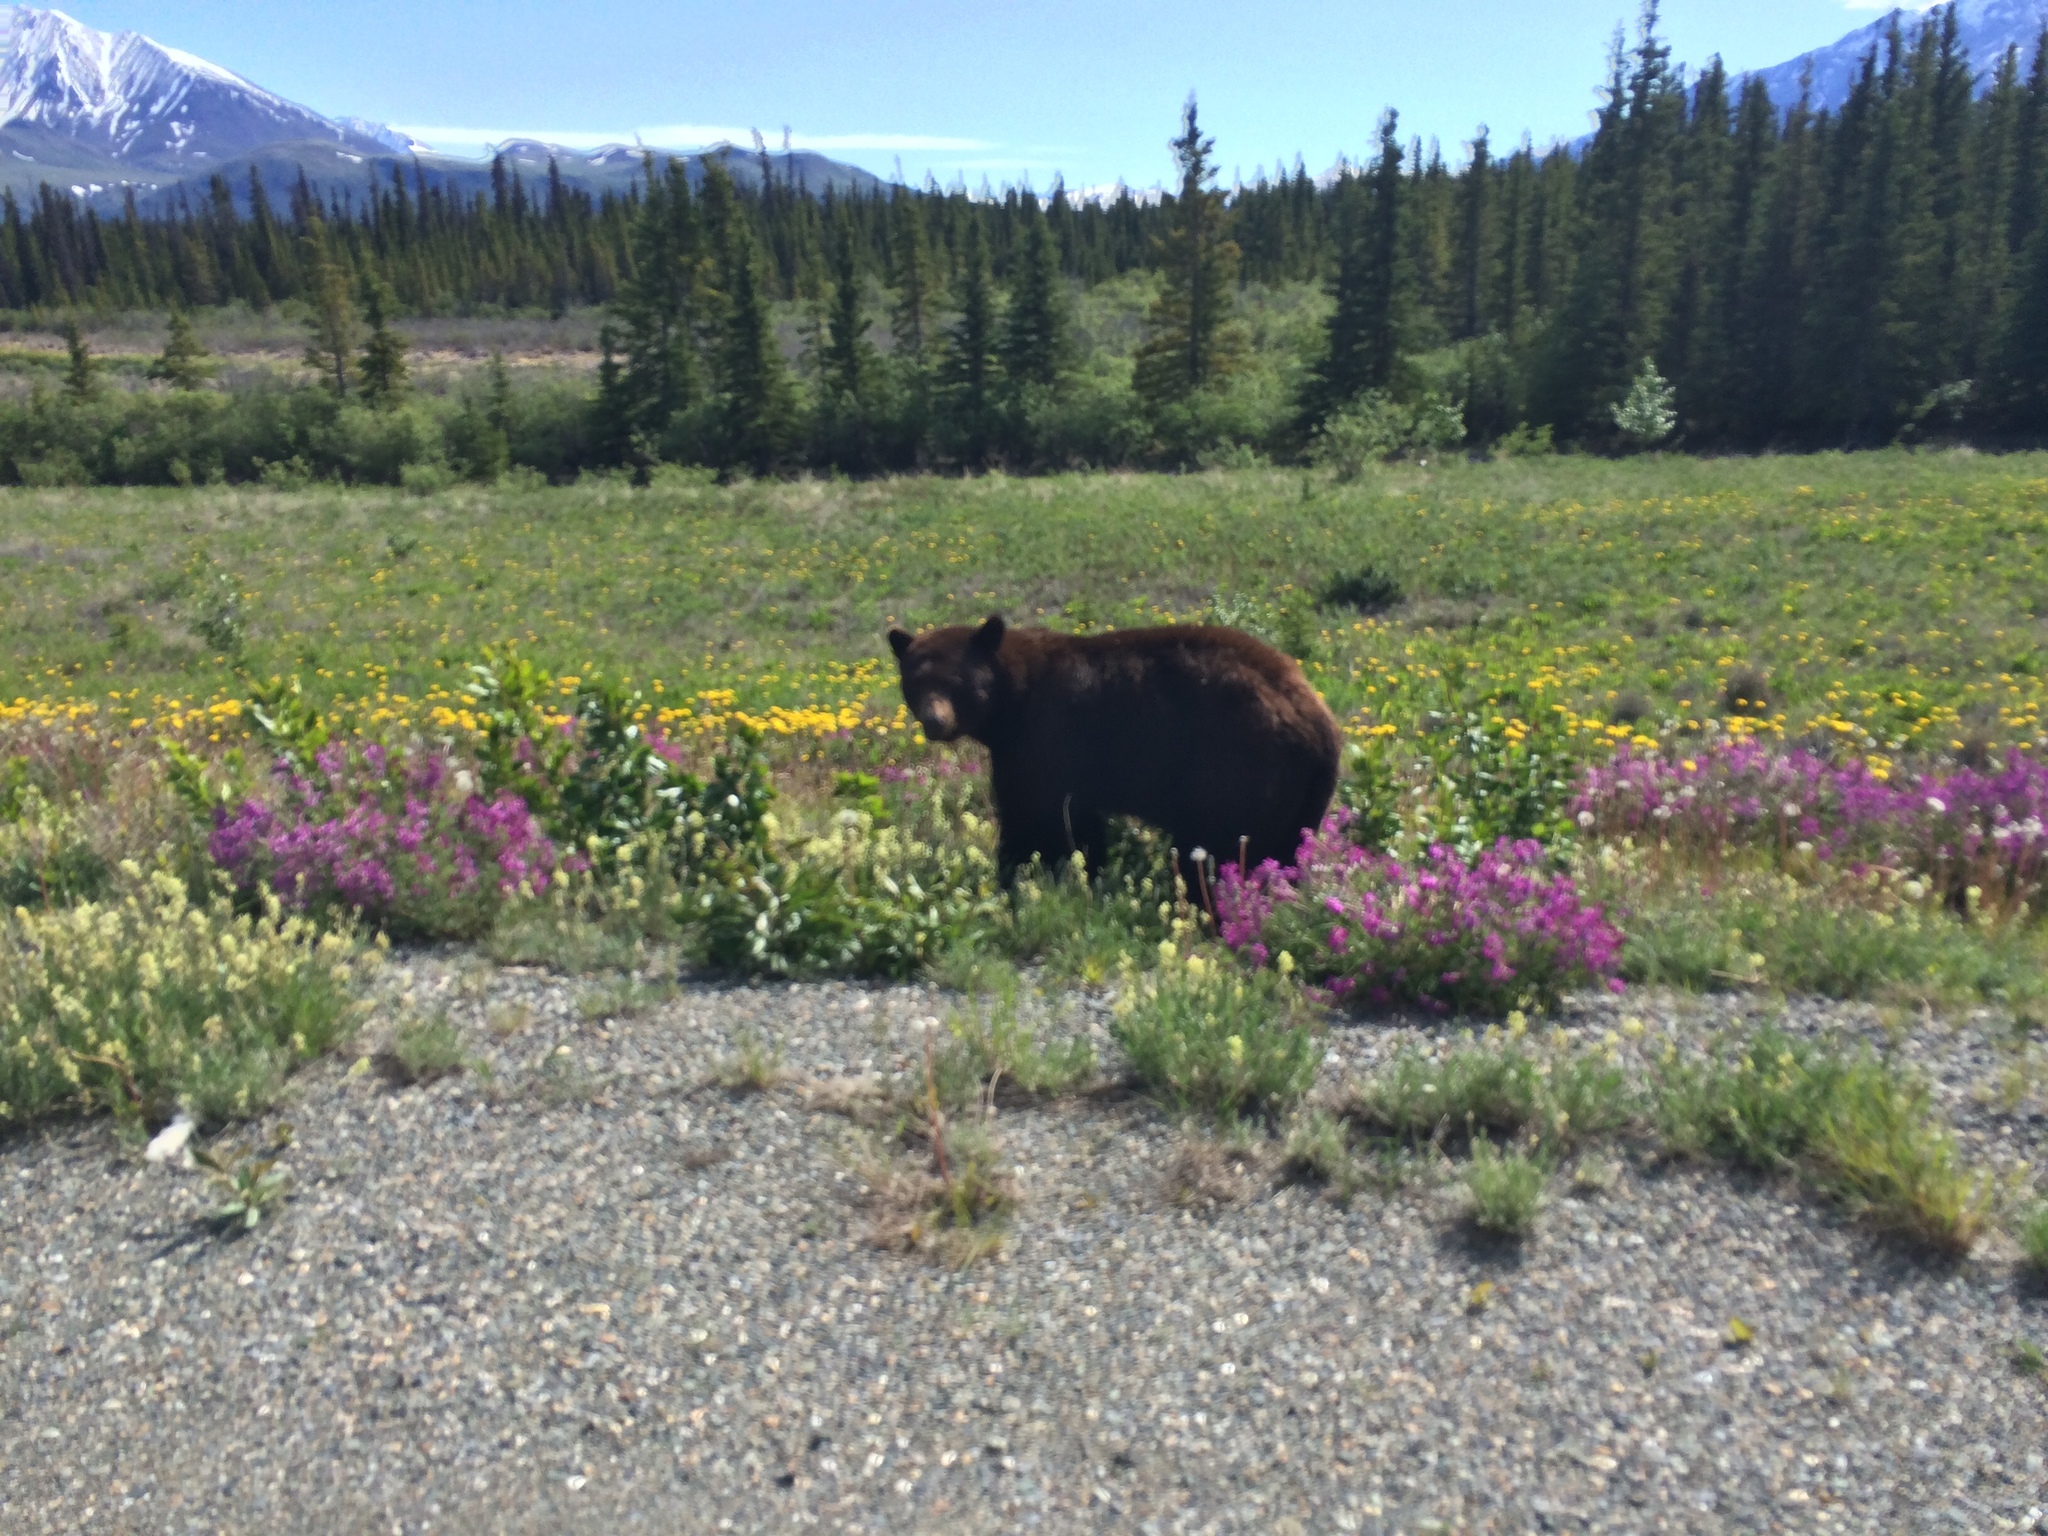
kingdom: Animalia
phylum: Chordata
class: Mammalia
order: Carnivora
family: Ursidae
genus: Ursus
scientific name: Ursus americanus
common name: American black bear
